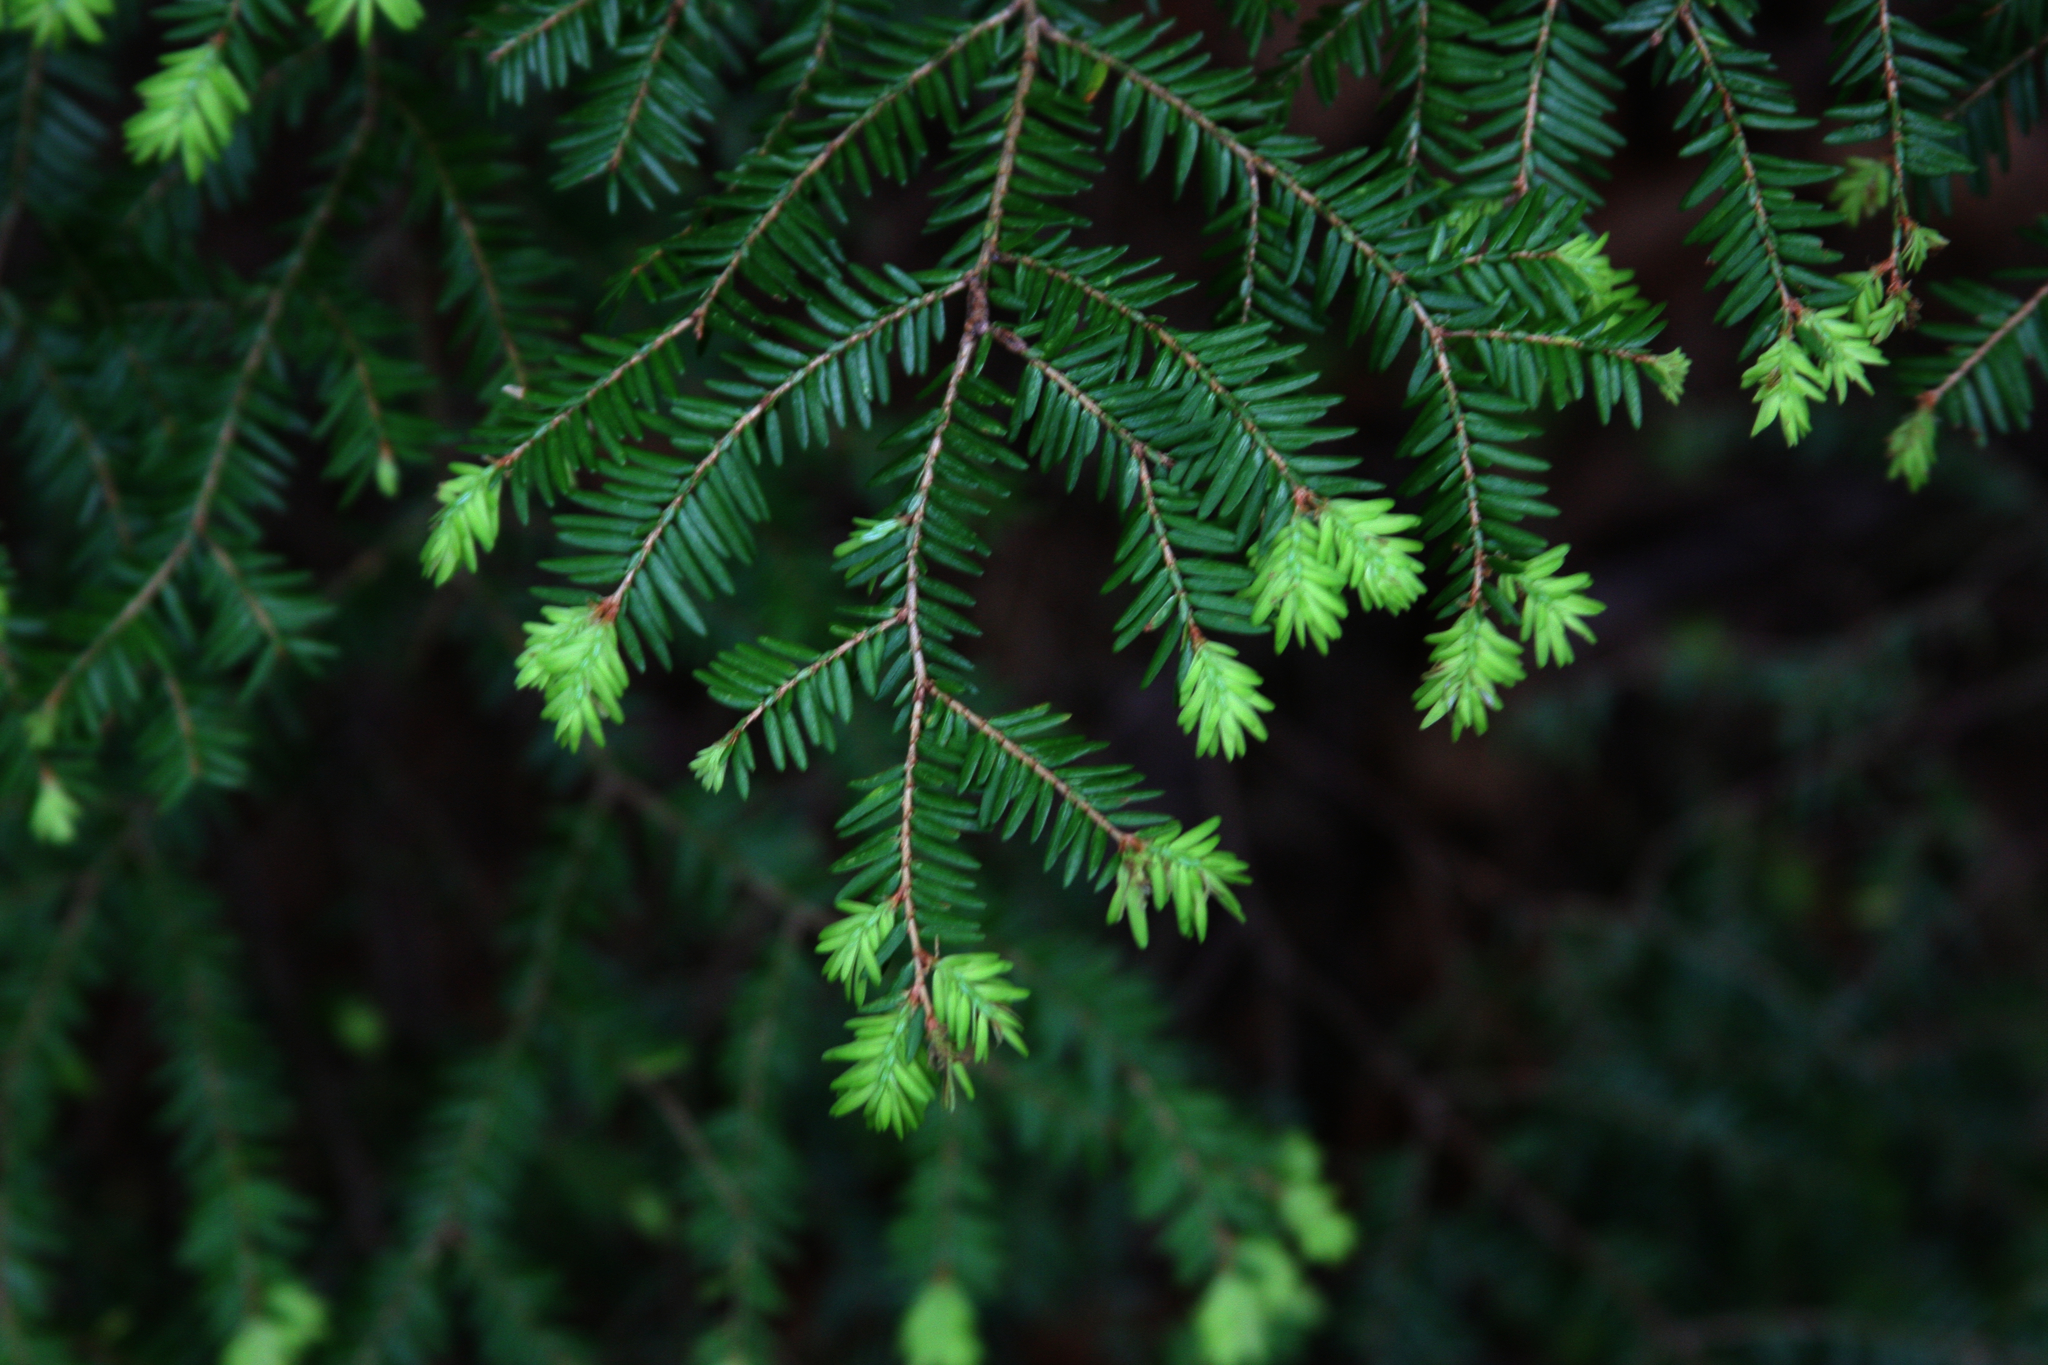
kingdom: Plantae
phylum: Tracheophyta
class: Pinopsida
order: Pinales
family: Pinaceae
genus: Tsuga
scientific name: Tsuga canadensis
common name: Eastern hemlock
